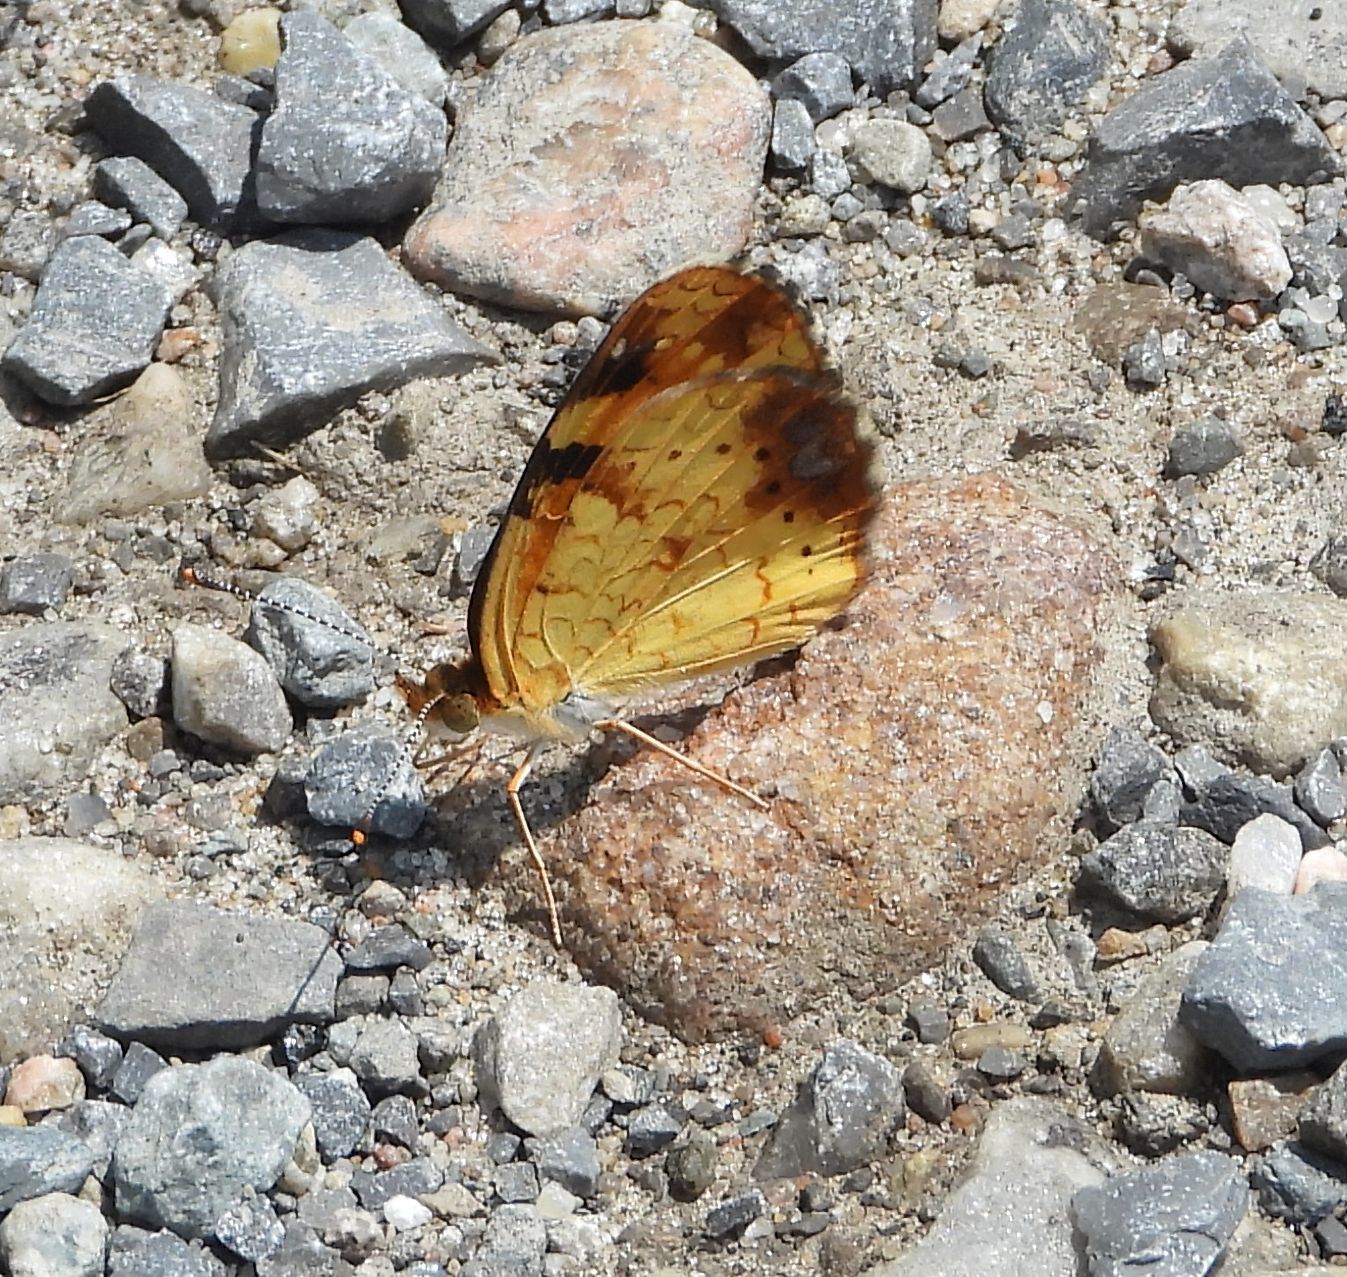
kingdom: Animalia
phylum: Arthropoda
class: Insecta
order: Lepidoptera
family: Nymphalidae
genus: Phyciodes
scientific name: Phyciodes tharos
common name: Pearl crescent
